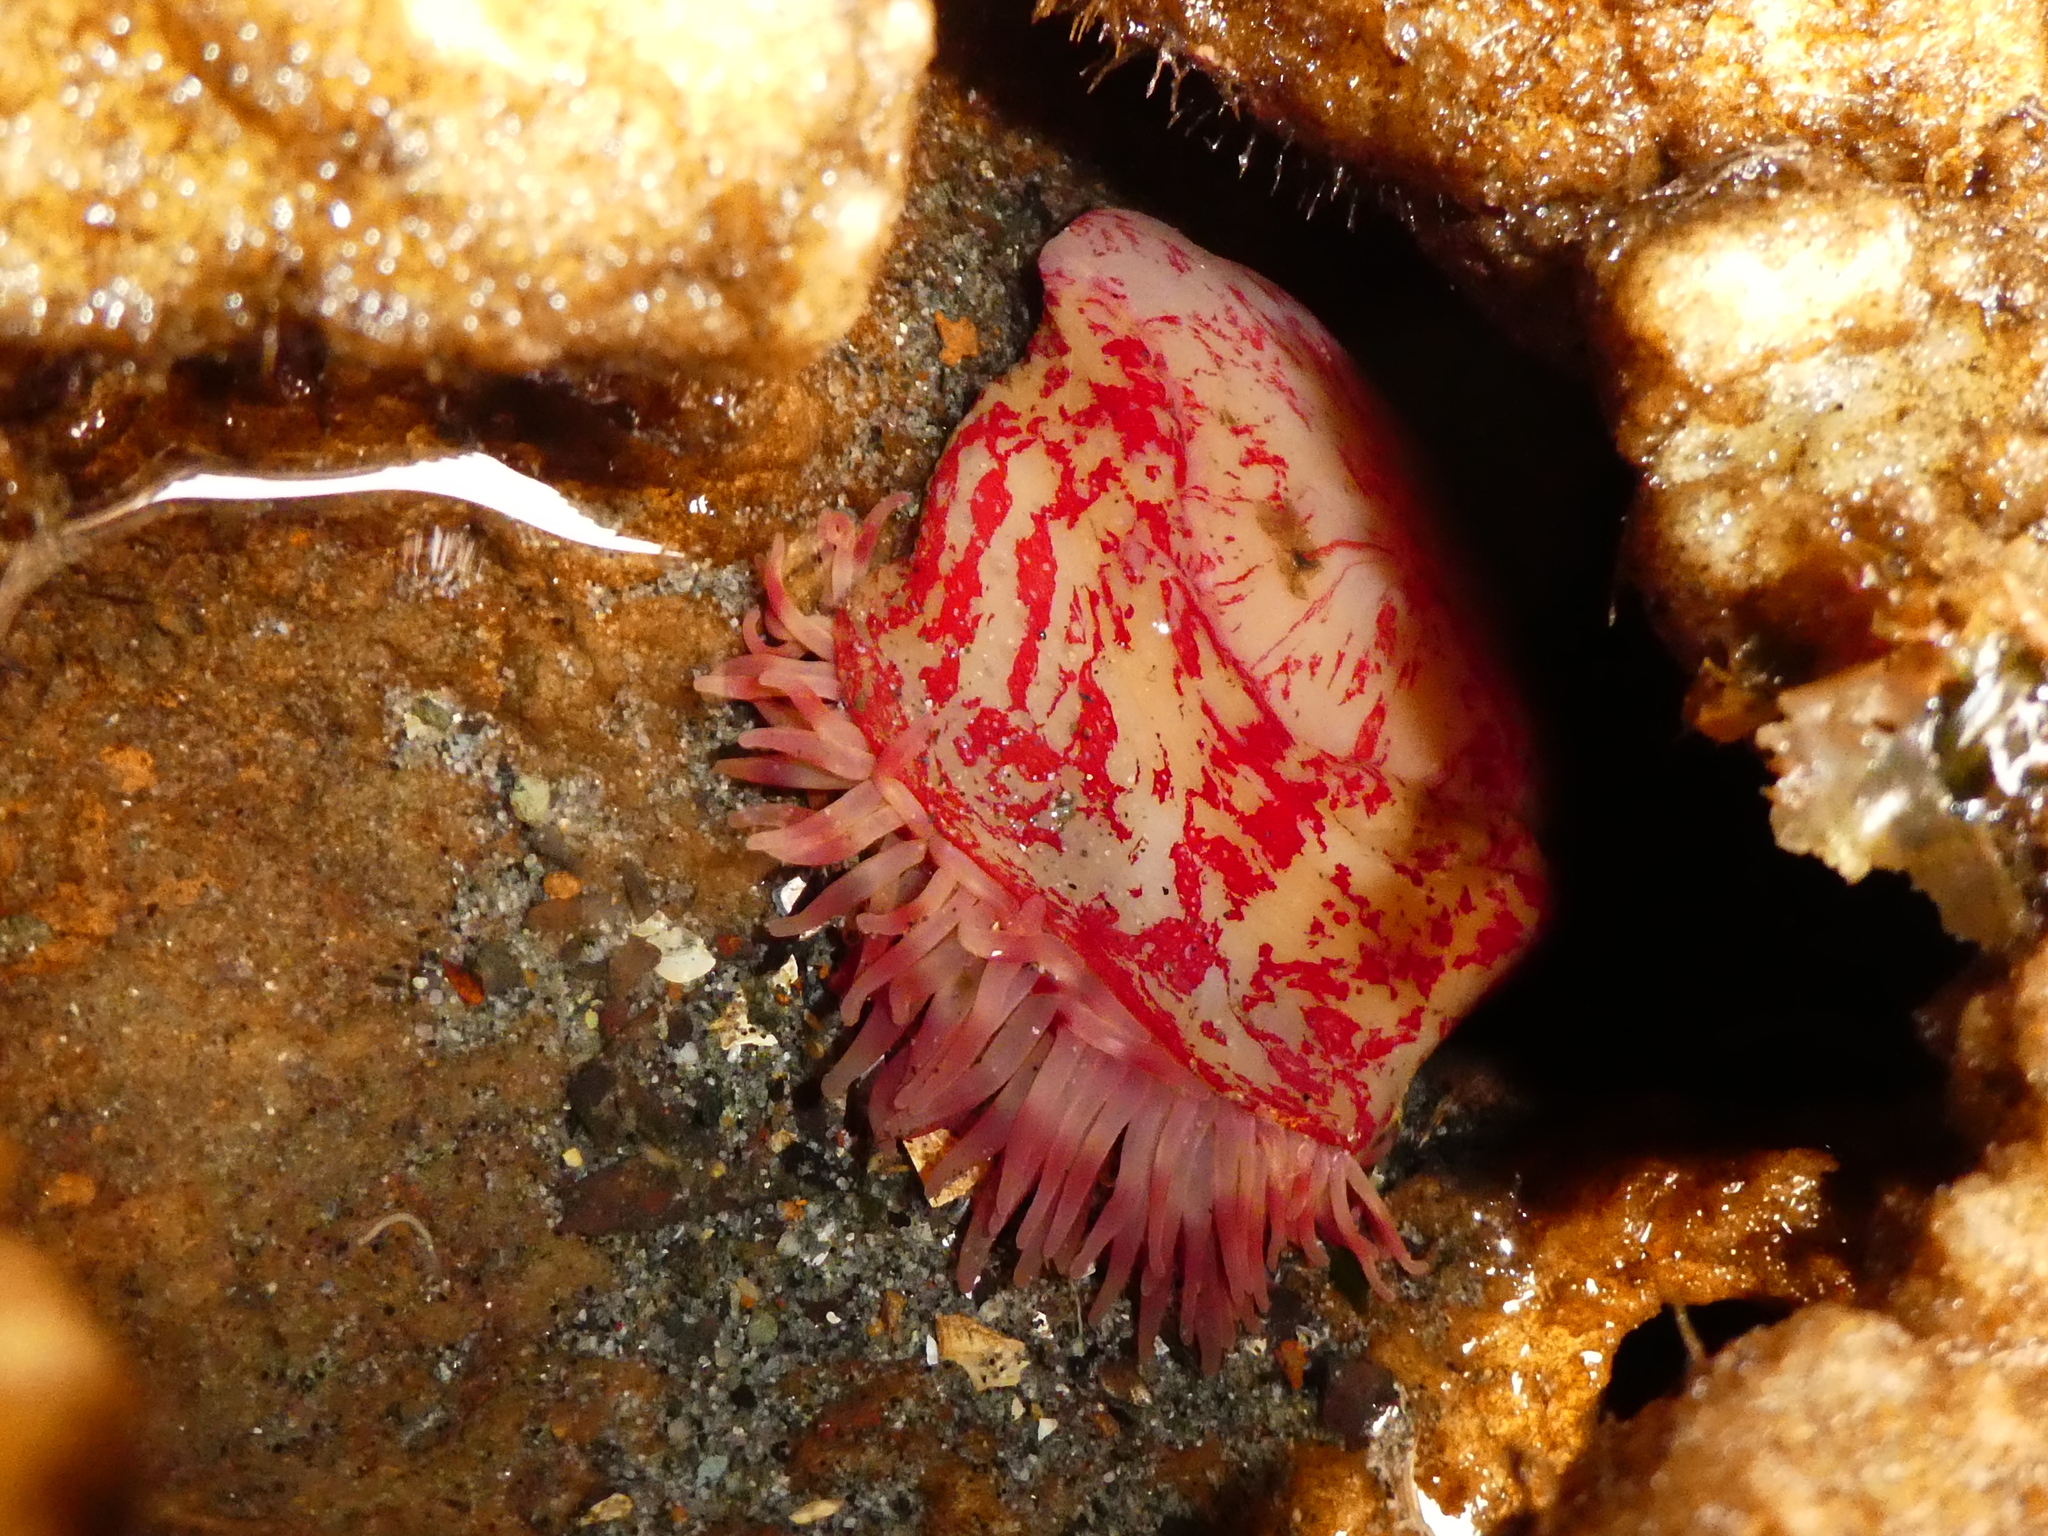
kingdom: Animalia
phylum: Cnidaria
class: Anthozoa
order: Actiniaria
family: Actiniidae
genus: Urticina
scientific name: Urticina grebelnyi
